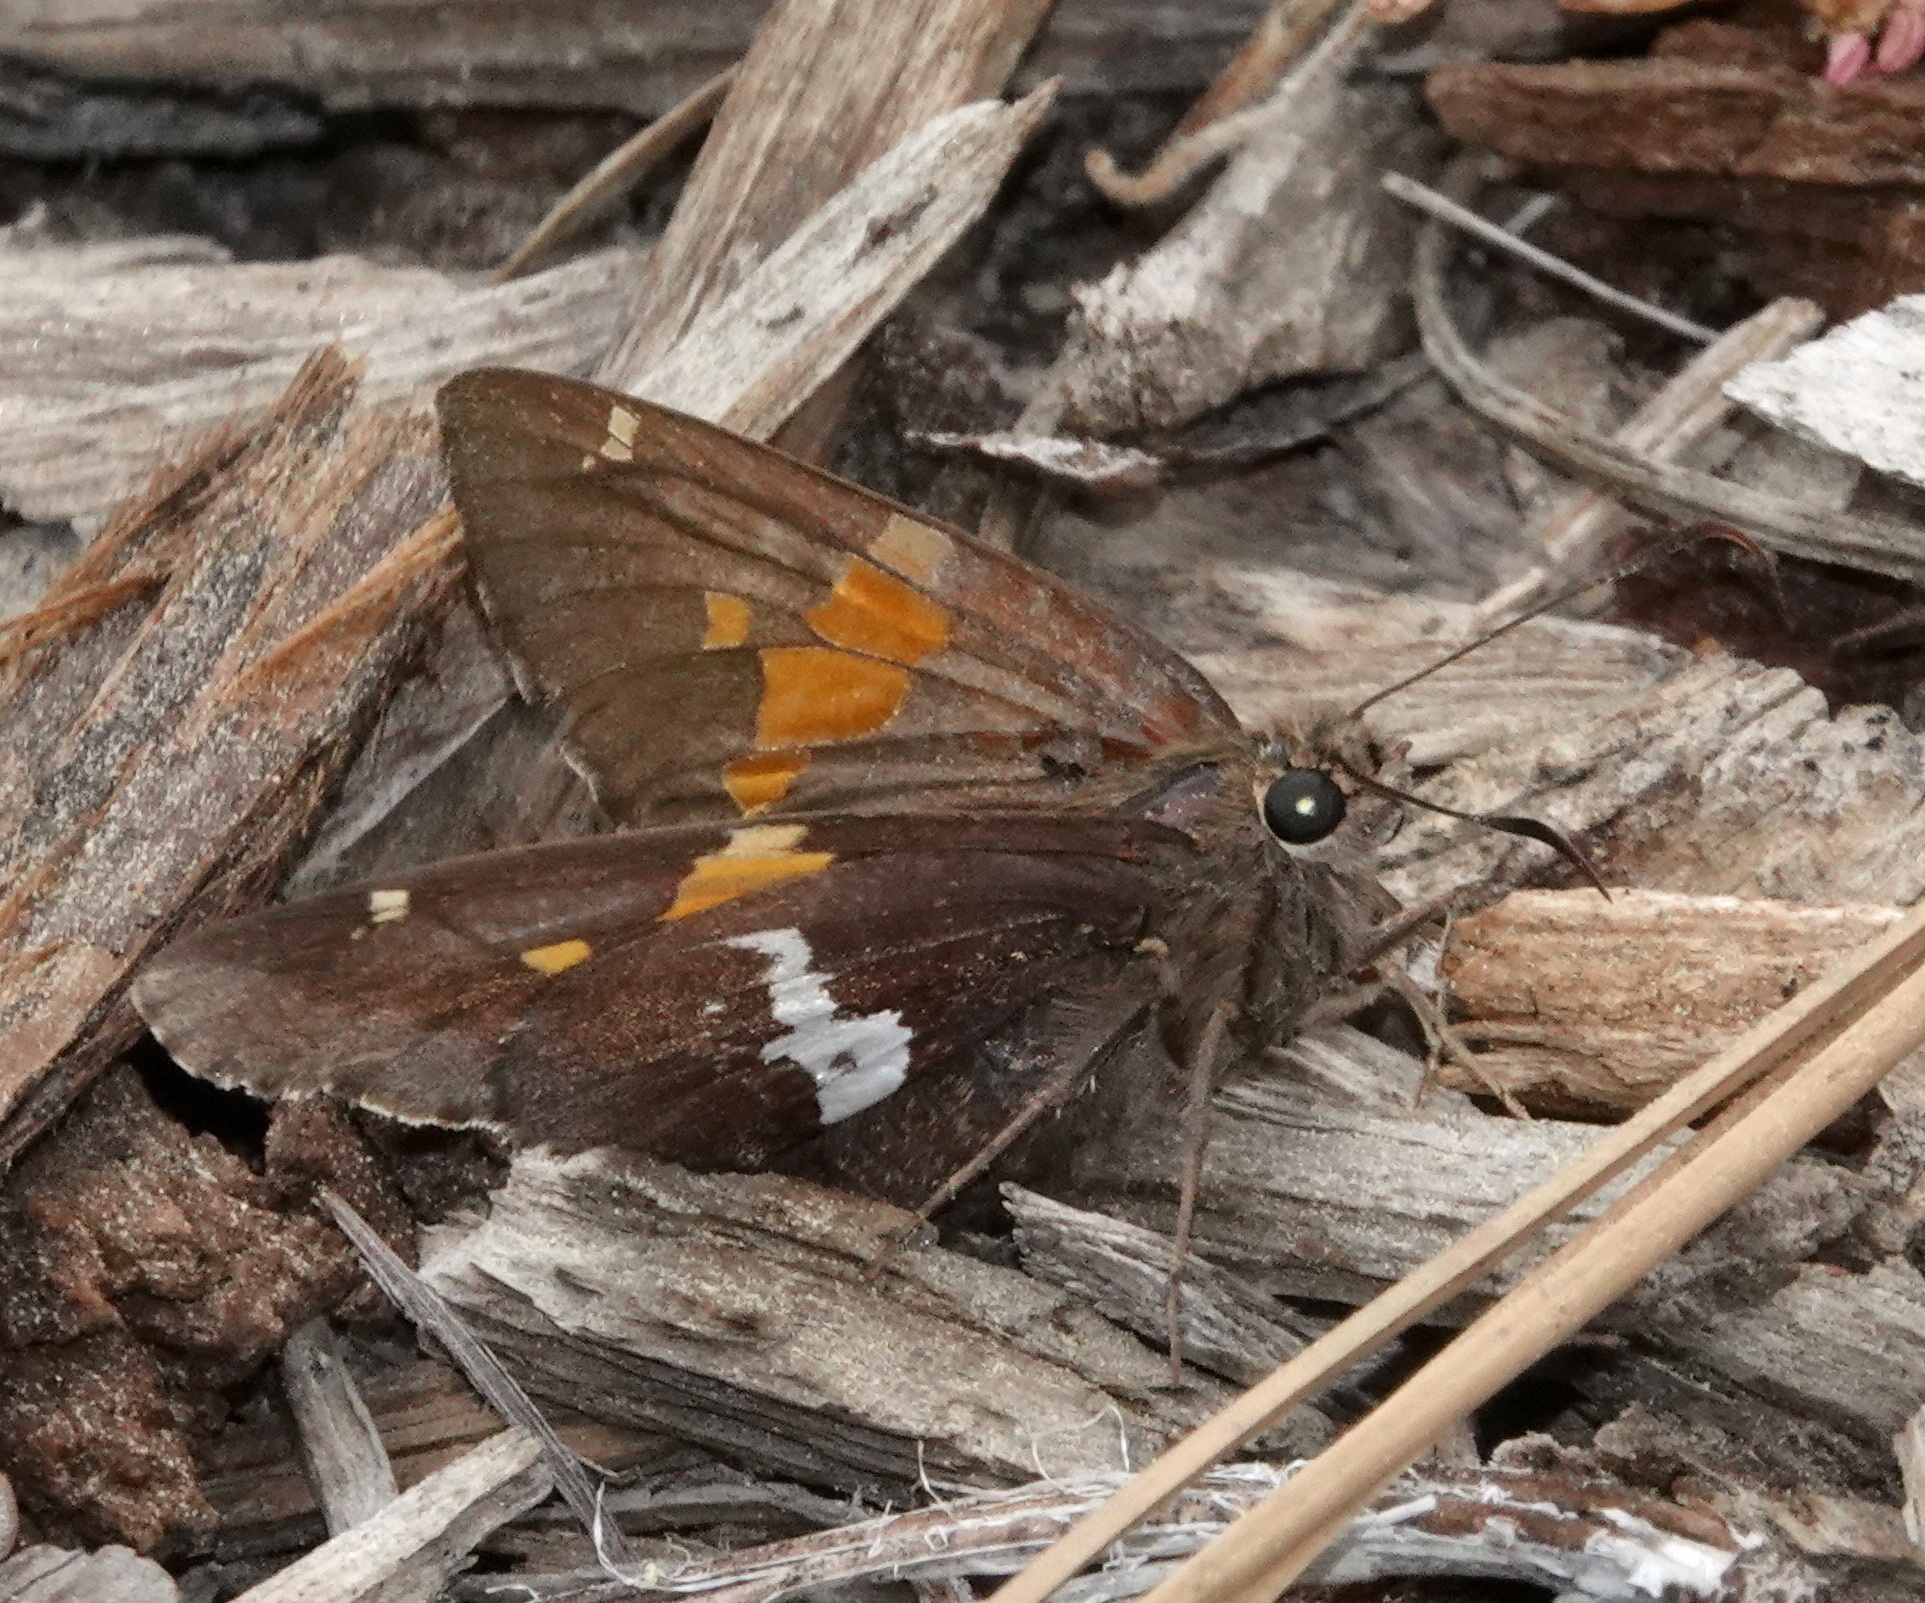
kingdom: Animalia
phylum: Arthropoda
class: Insecta
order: Lepidoptera
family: Hesperiidae
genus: Epargyreus
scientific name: Epargyreus clarus
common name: Silver-spotted skipper
